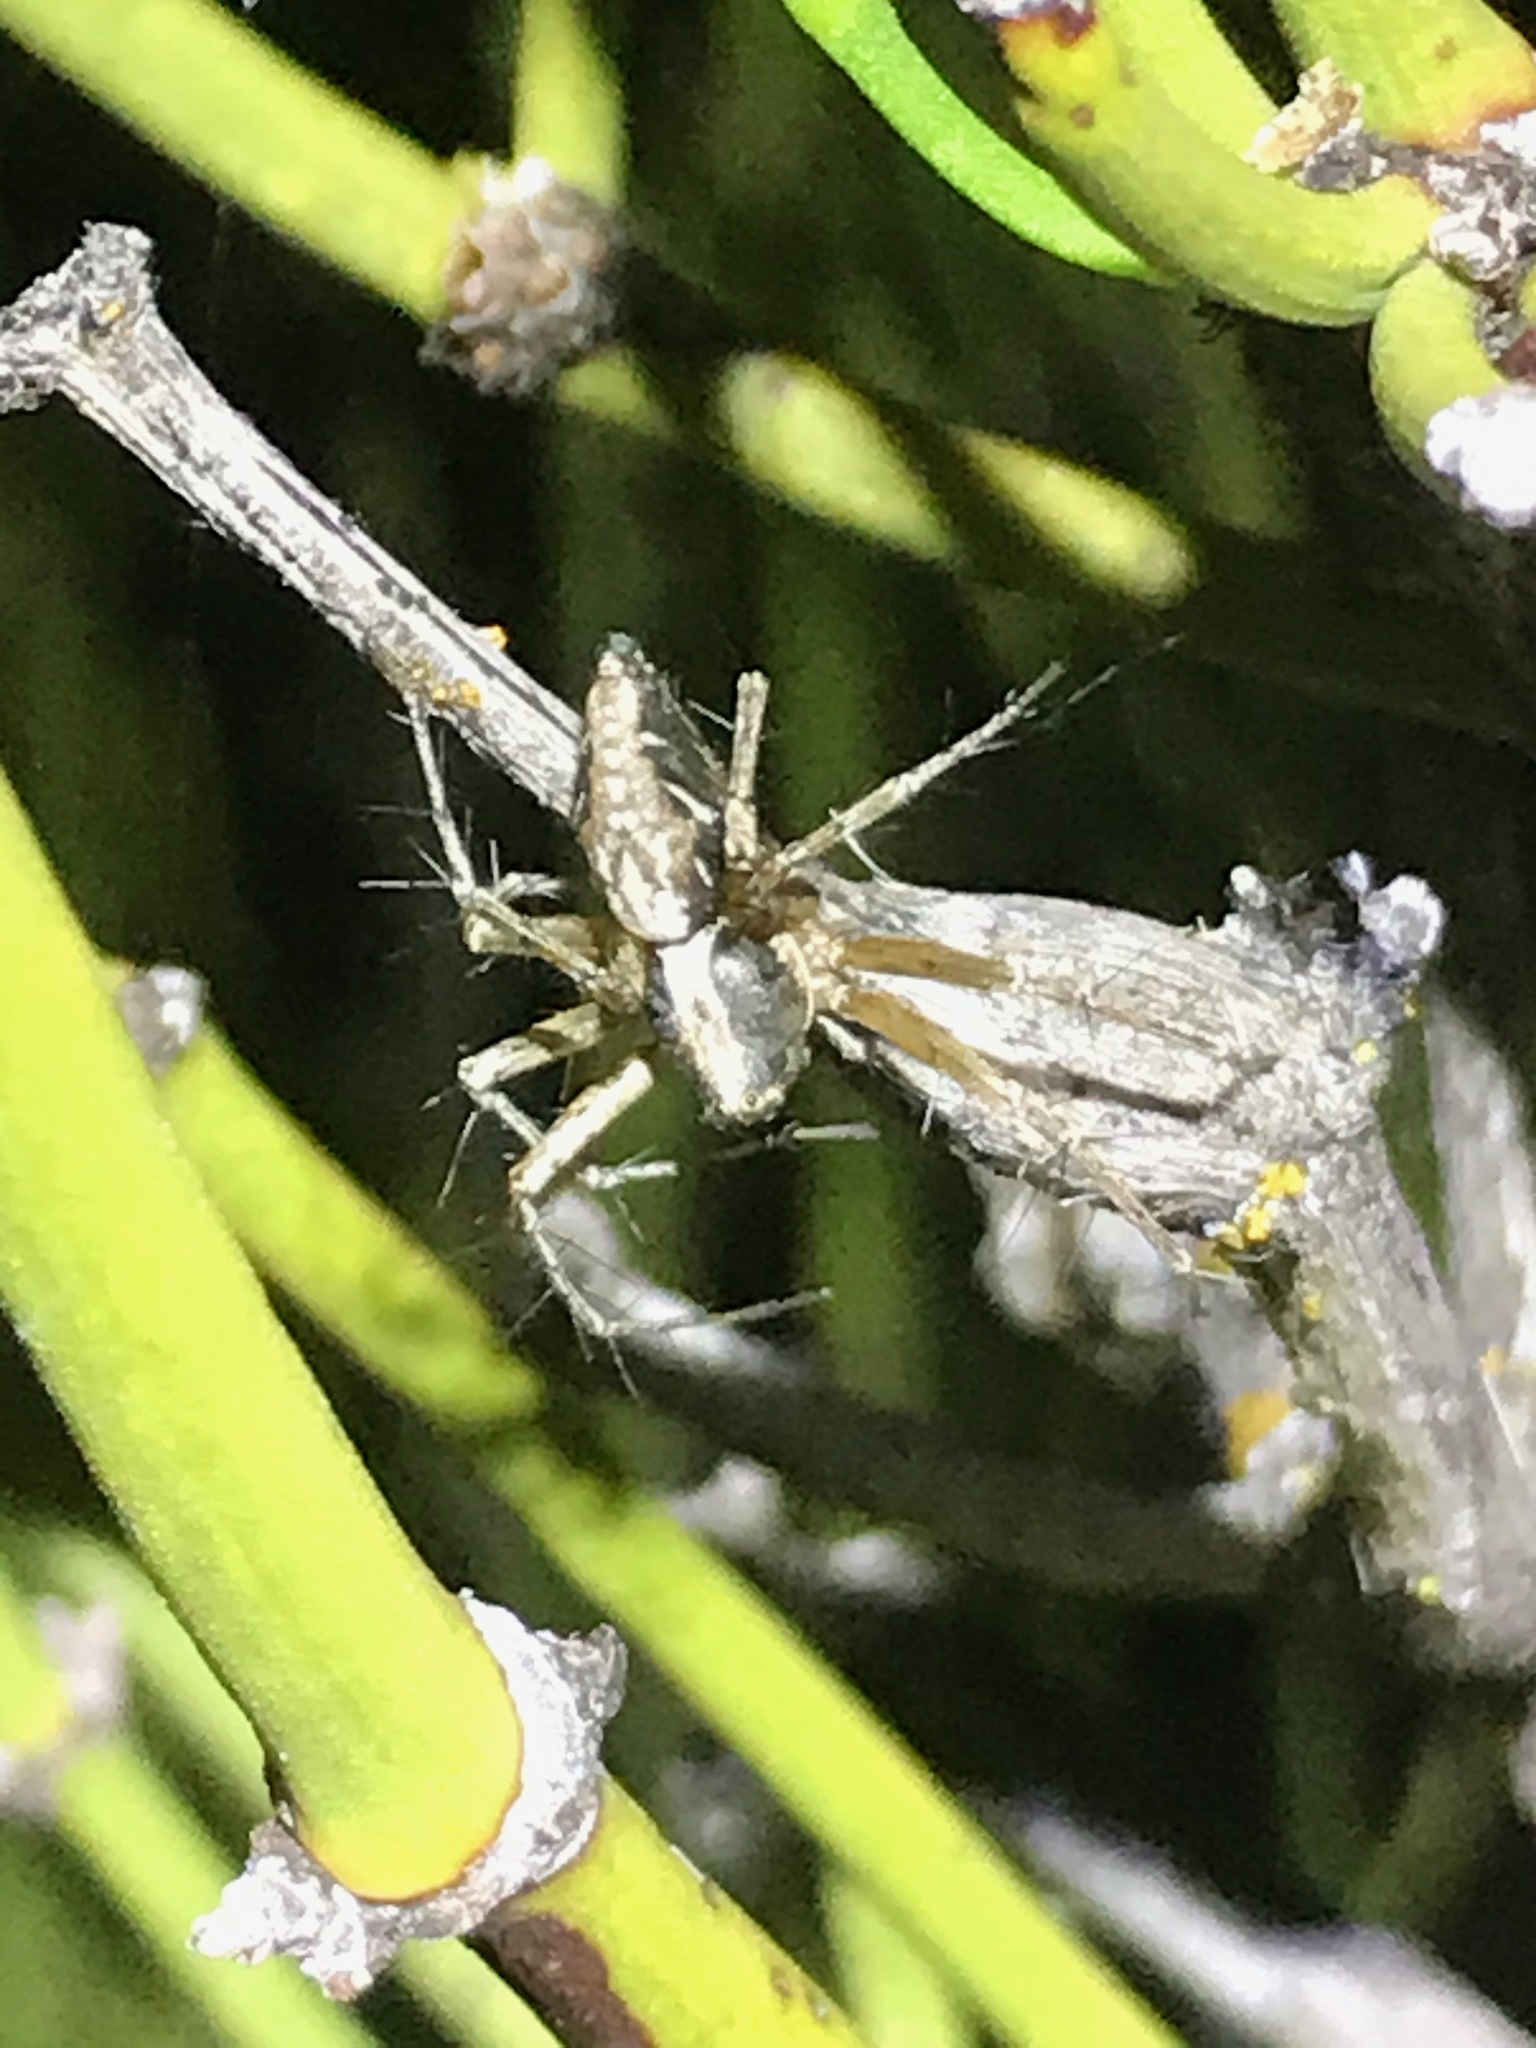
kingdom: Animalia
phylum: Arthropoda
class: Arachnida
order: Araneae
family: Oxyopidae
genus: Oxyopes
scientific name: Oxyopes scalaris
